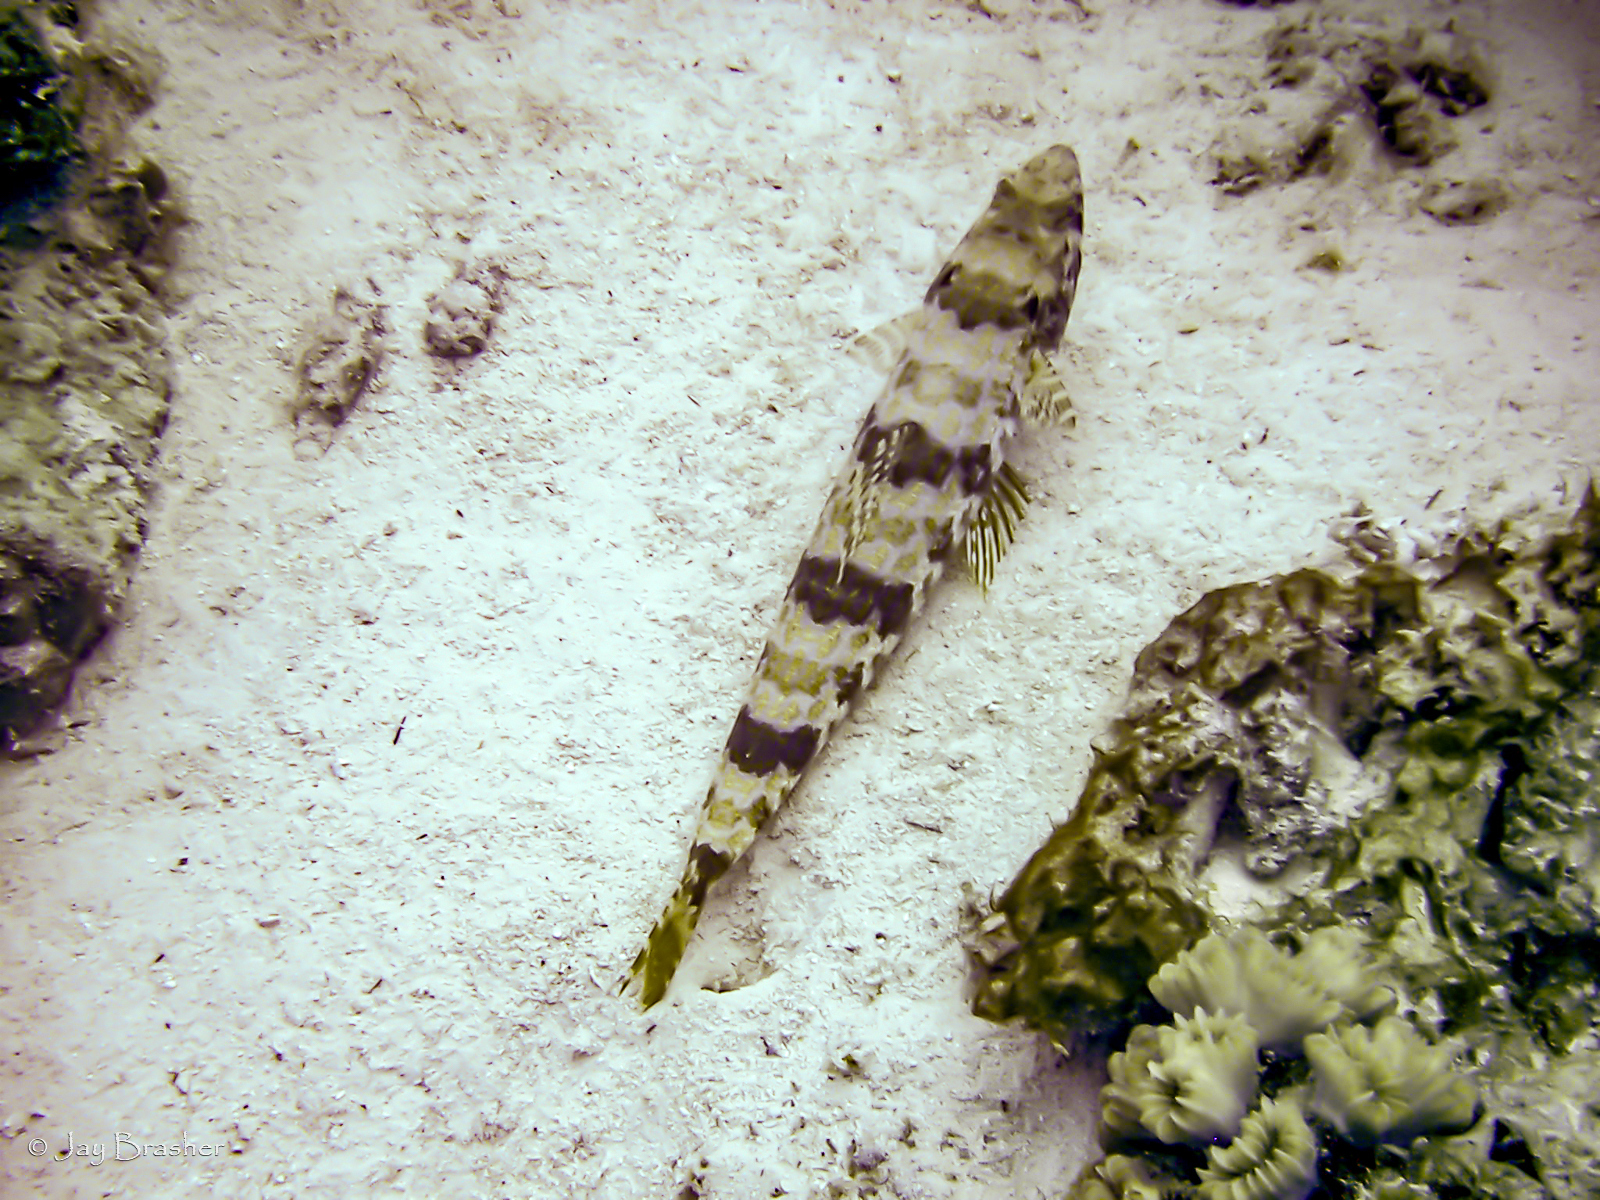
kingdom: Animalia
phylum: Chordata
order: Aulopiformes
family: Synodontidae
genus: Synodus
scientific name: Synodus intermedius
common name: Sand diver
